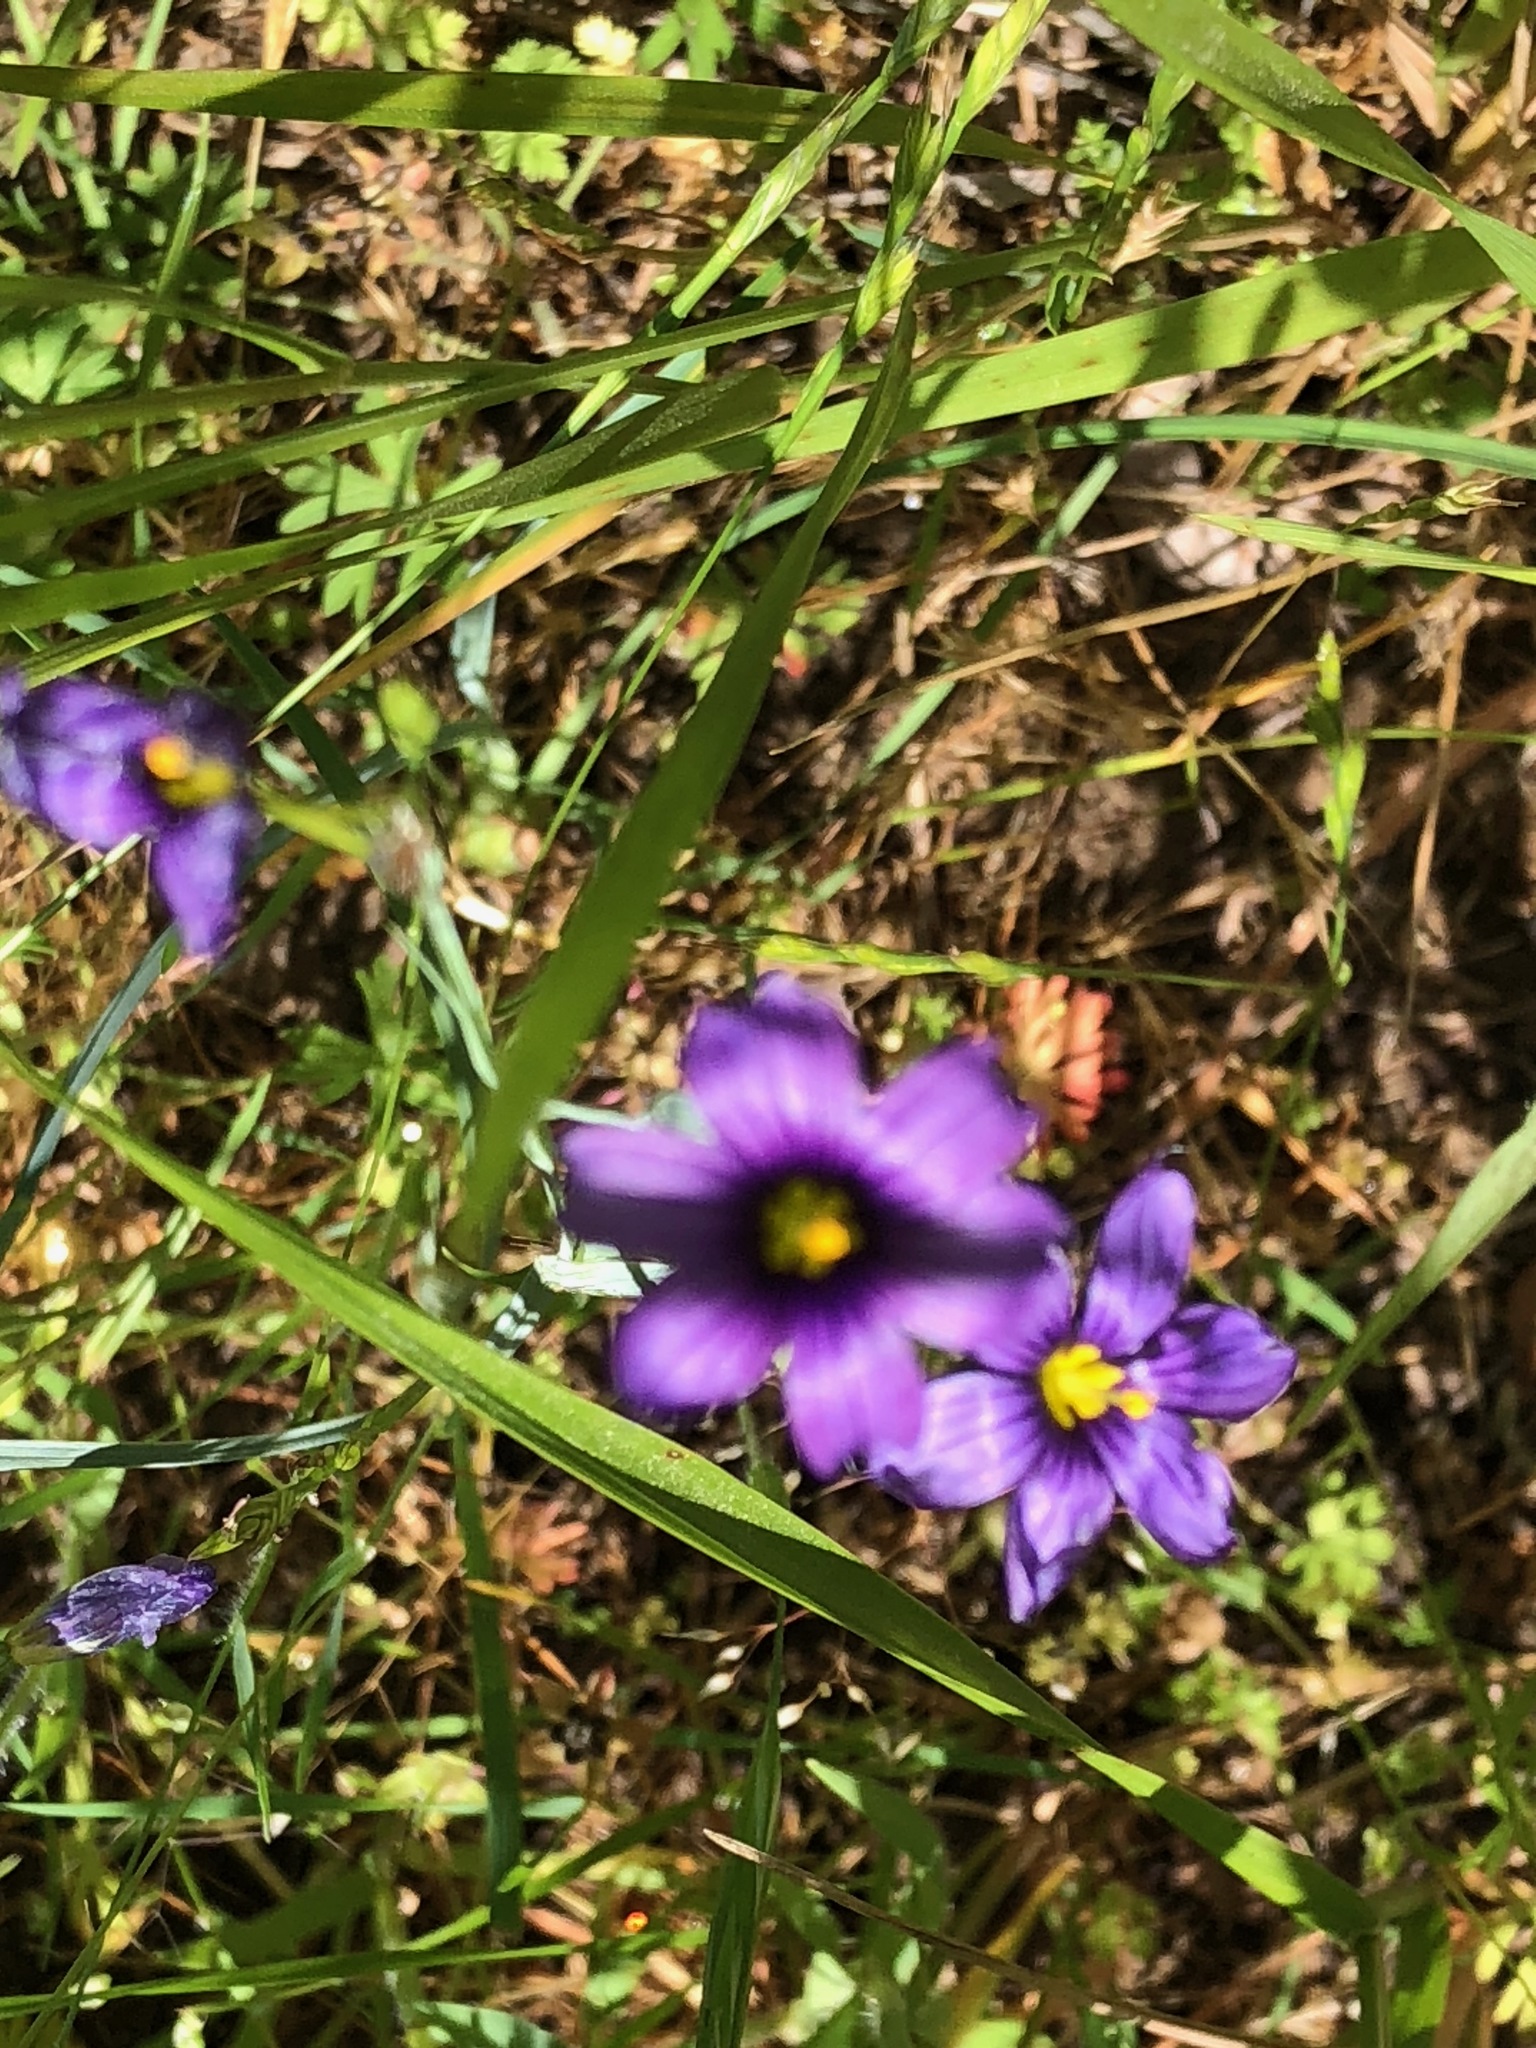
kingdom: Plantae
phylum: Tracheophyta
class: Liliopsida
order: Asparagales
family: Iridaceae
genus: Sisyrinchium
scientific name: Sisyrinchium bellum
